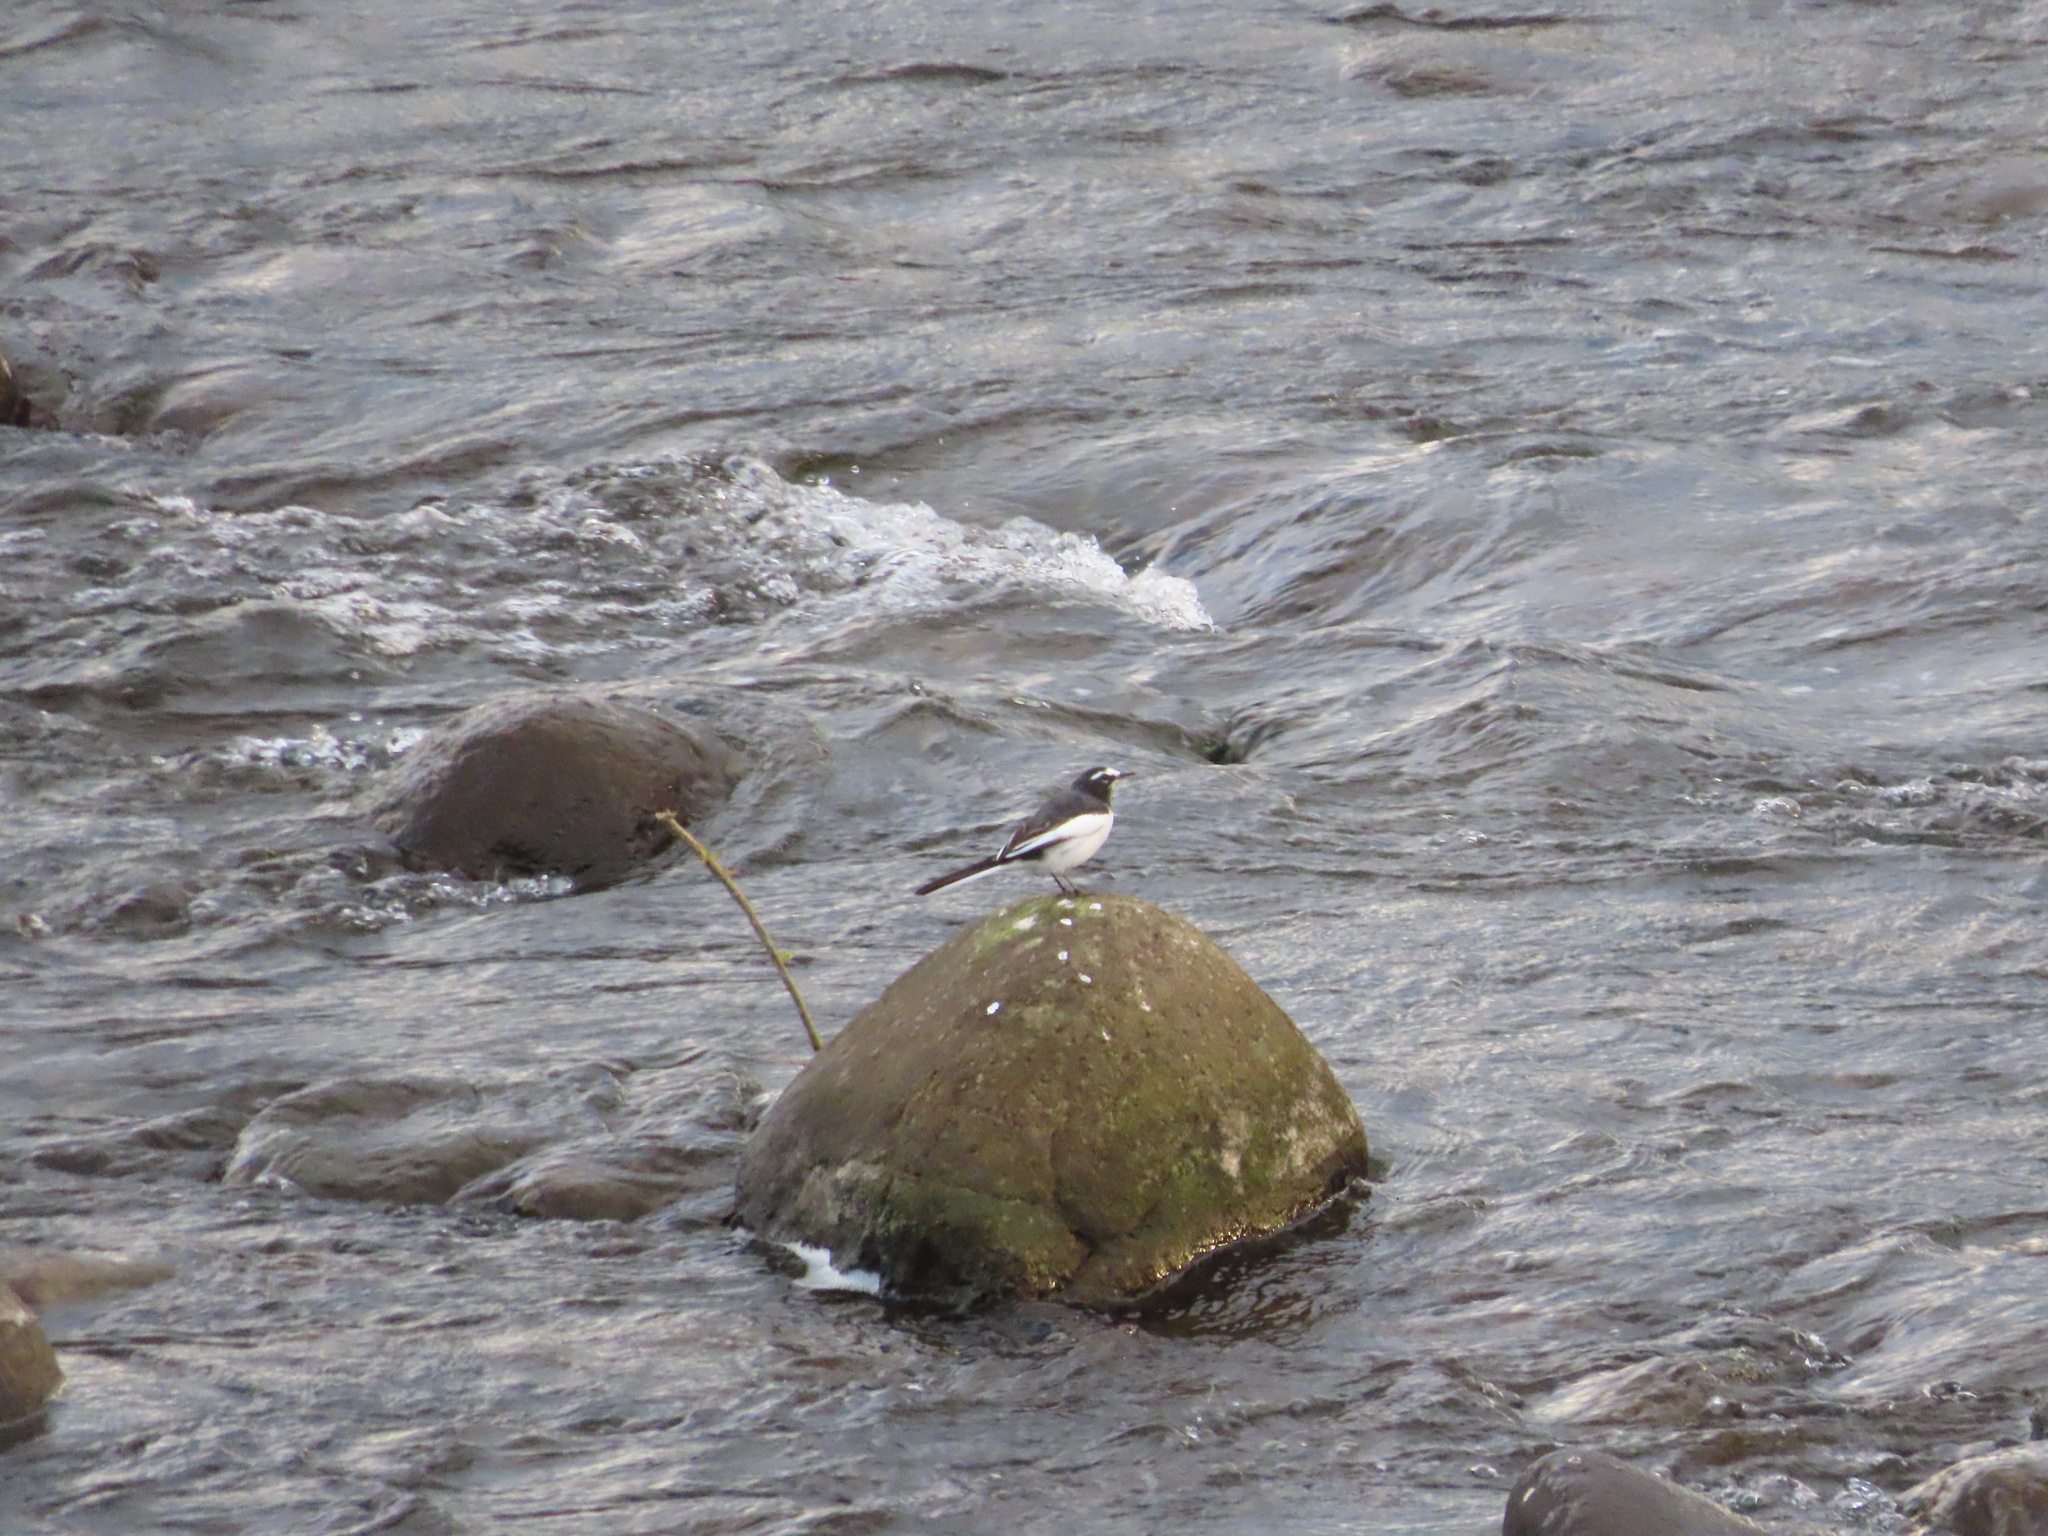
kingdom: Animalia
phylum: Chordata
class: Aves
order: Passeriformes
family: Motacillidae
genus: Motacilla
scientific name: Motacilla grandis
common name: Japanese wagtail
